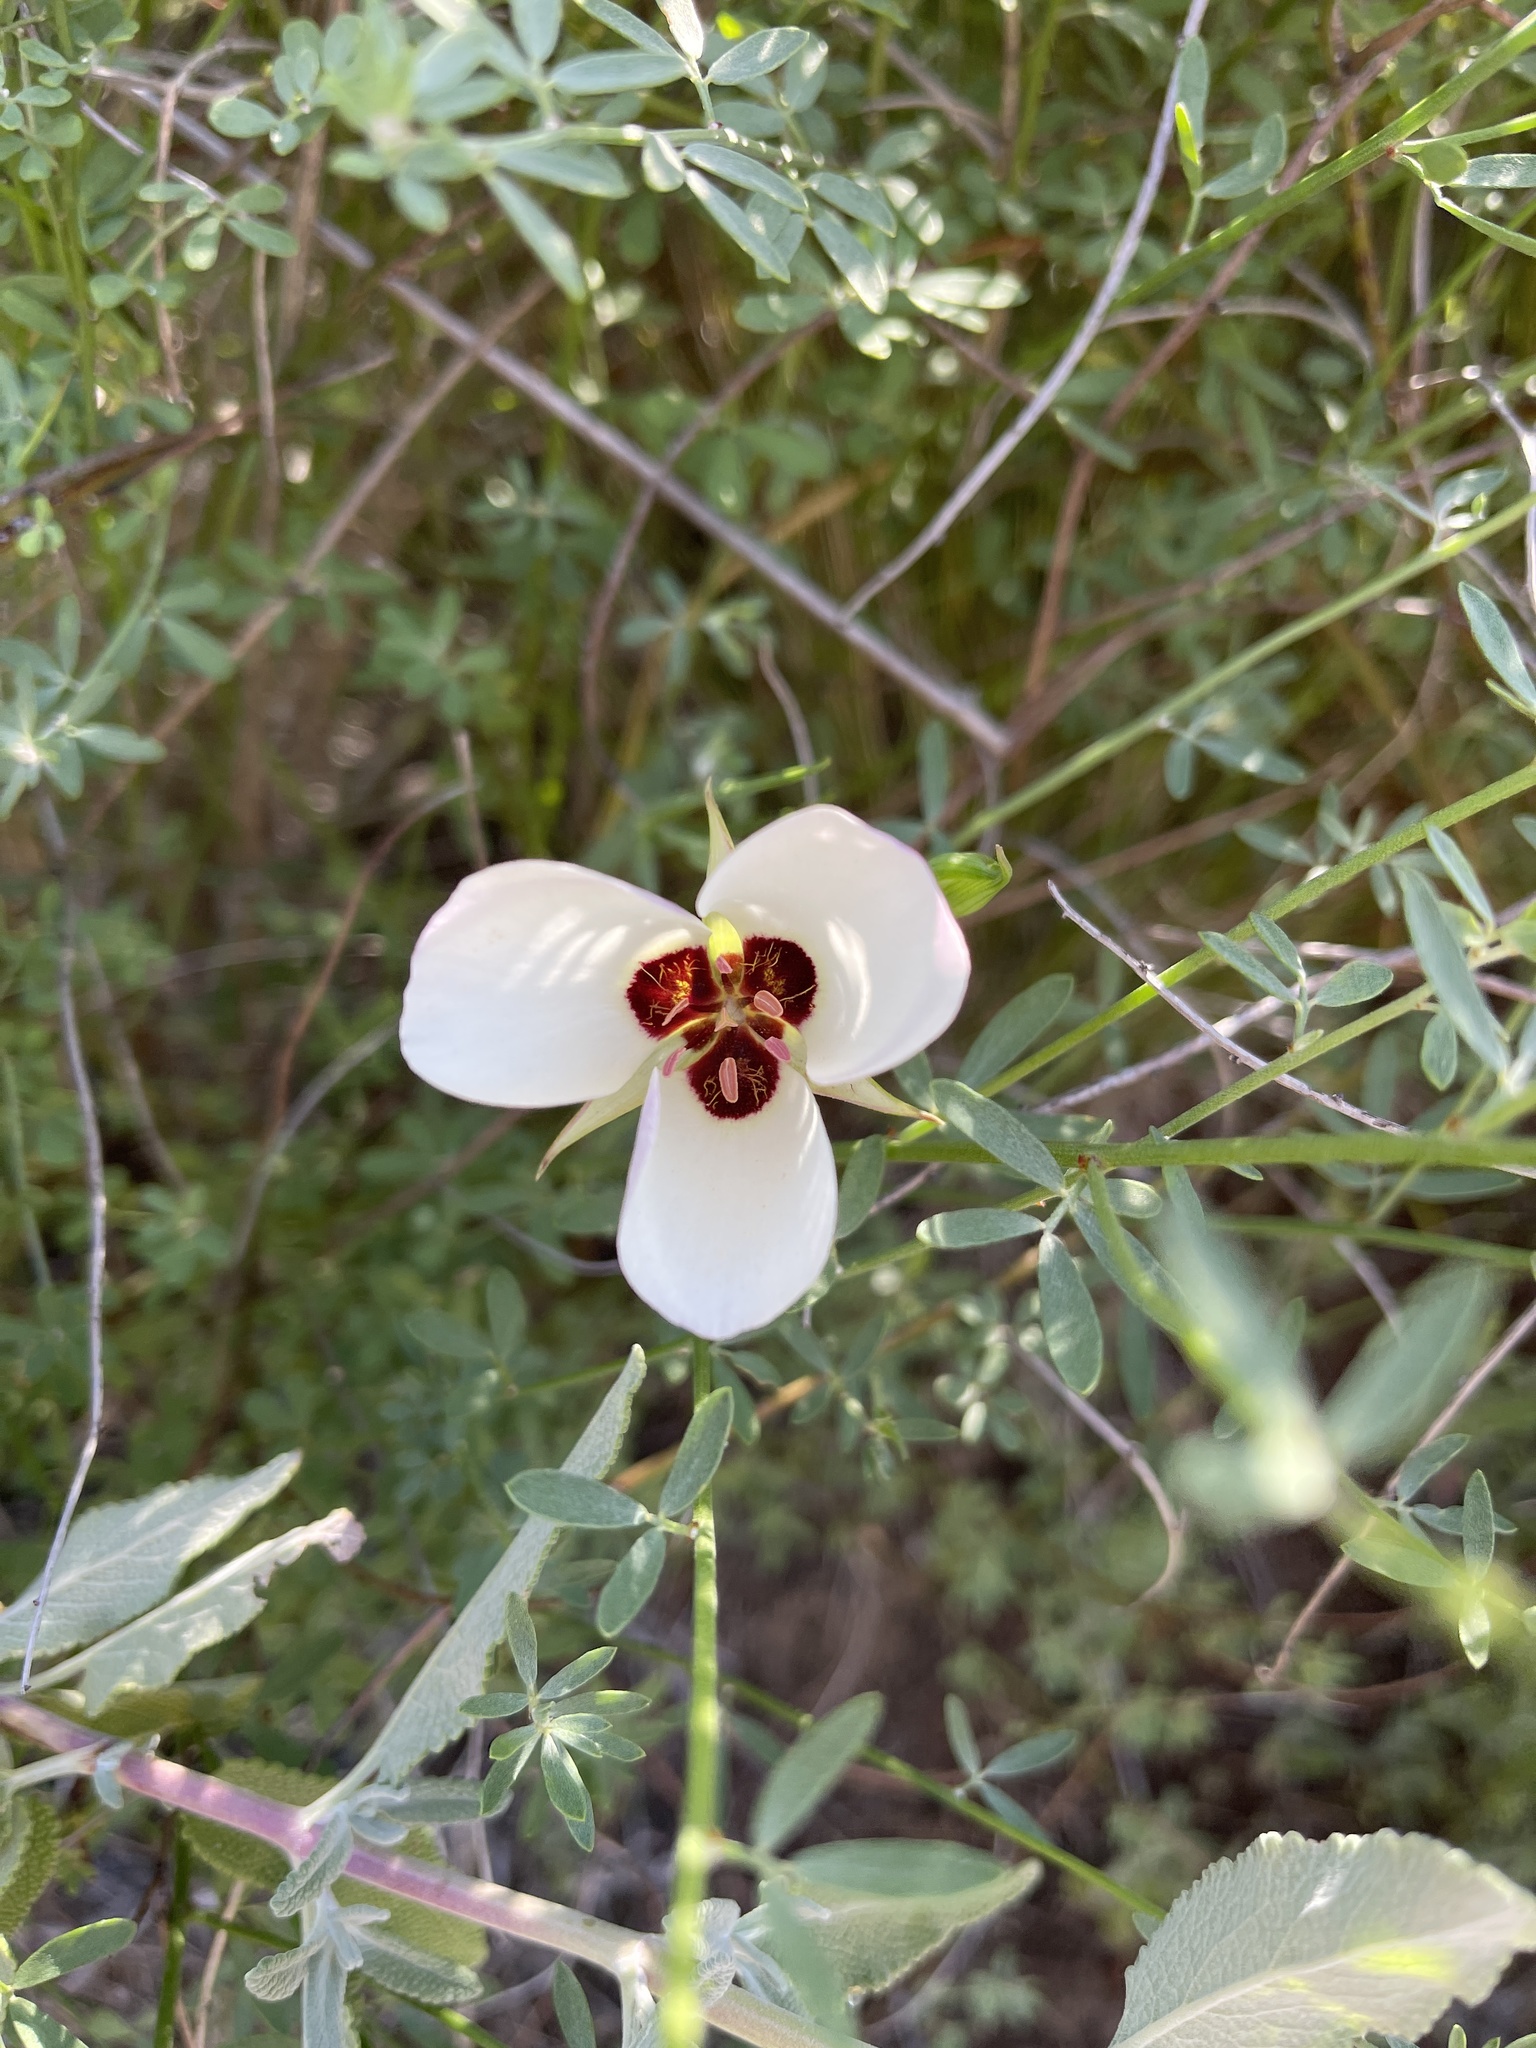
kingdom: Plantae
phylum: Tracheophyta
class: Liliopsida
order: Liliales
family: Liliaceae
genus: Calochortus
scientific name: Calochortus catalinae
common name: Catalina mariposa-lily
